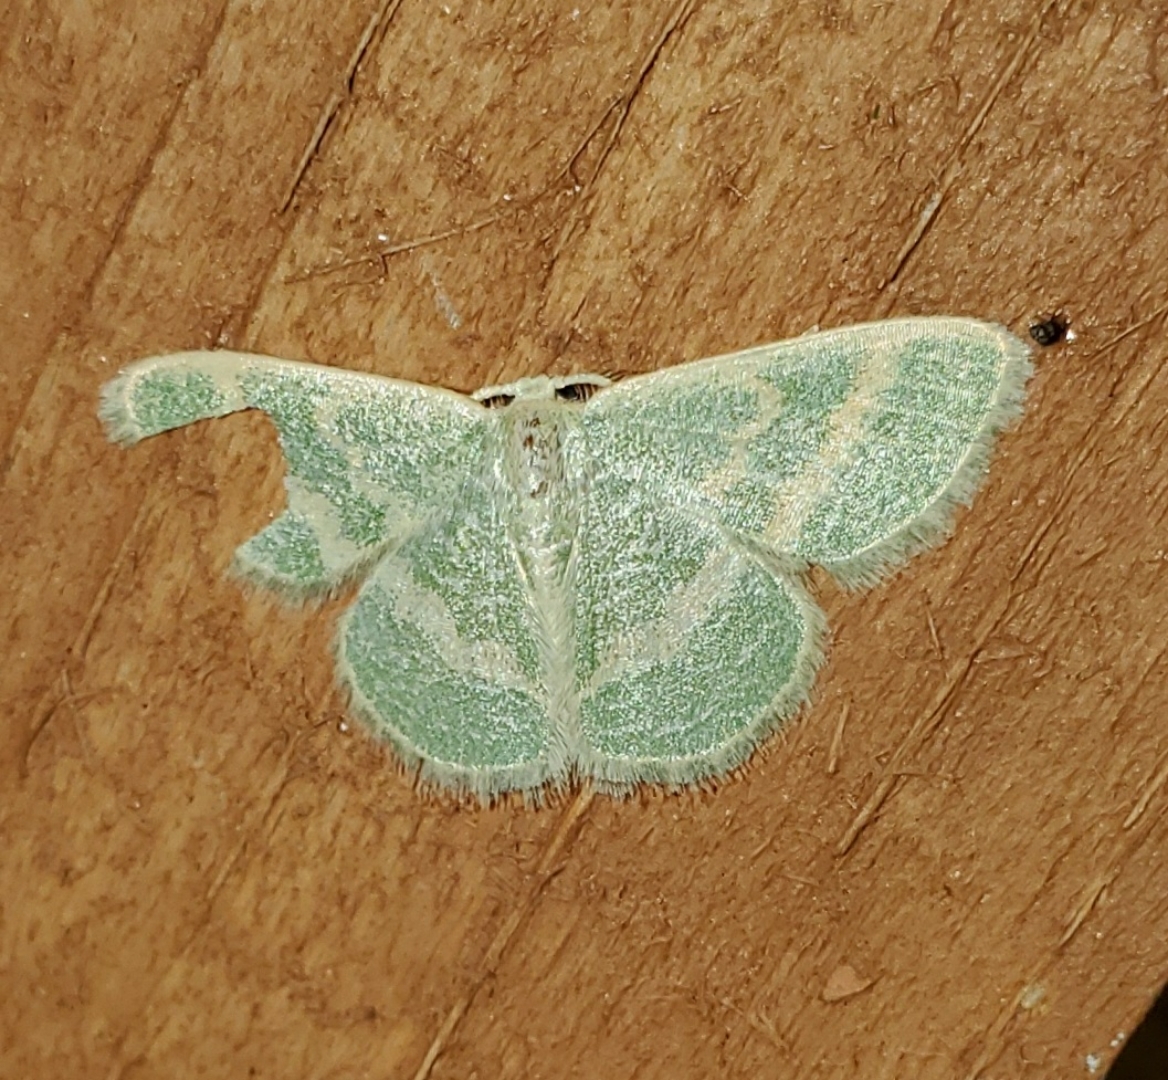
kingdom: Animalia
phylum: Arthropoda
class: Insecta
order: Lepidoptera
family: Geometridae
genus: Chlorochlamys
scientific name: Chlorochlamys chloroleucaria
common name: Blackberry looper
